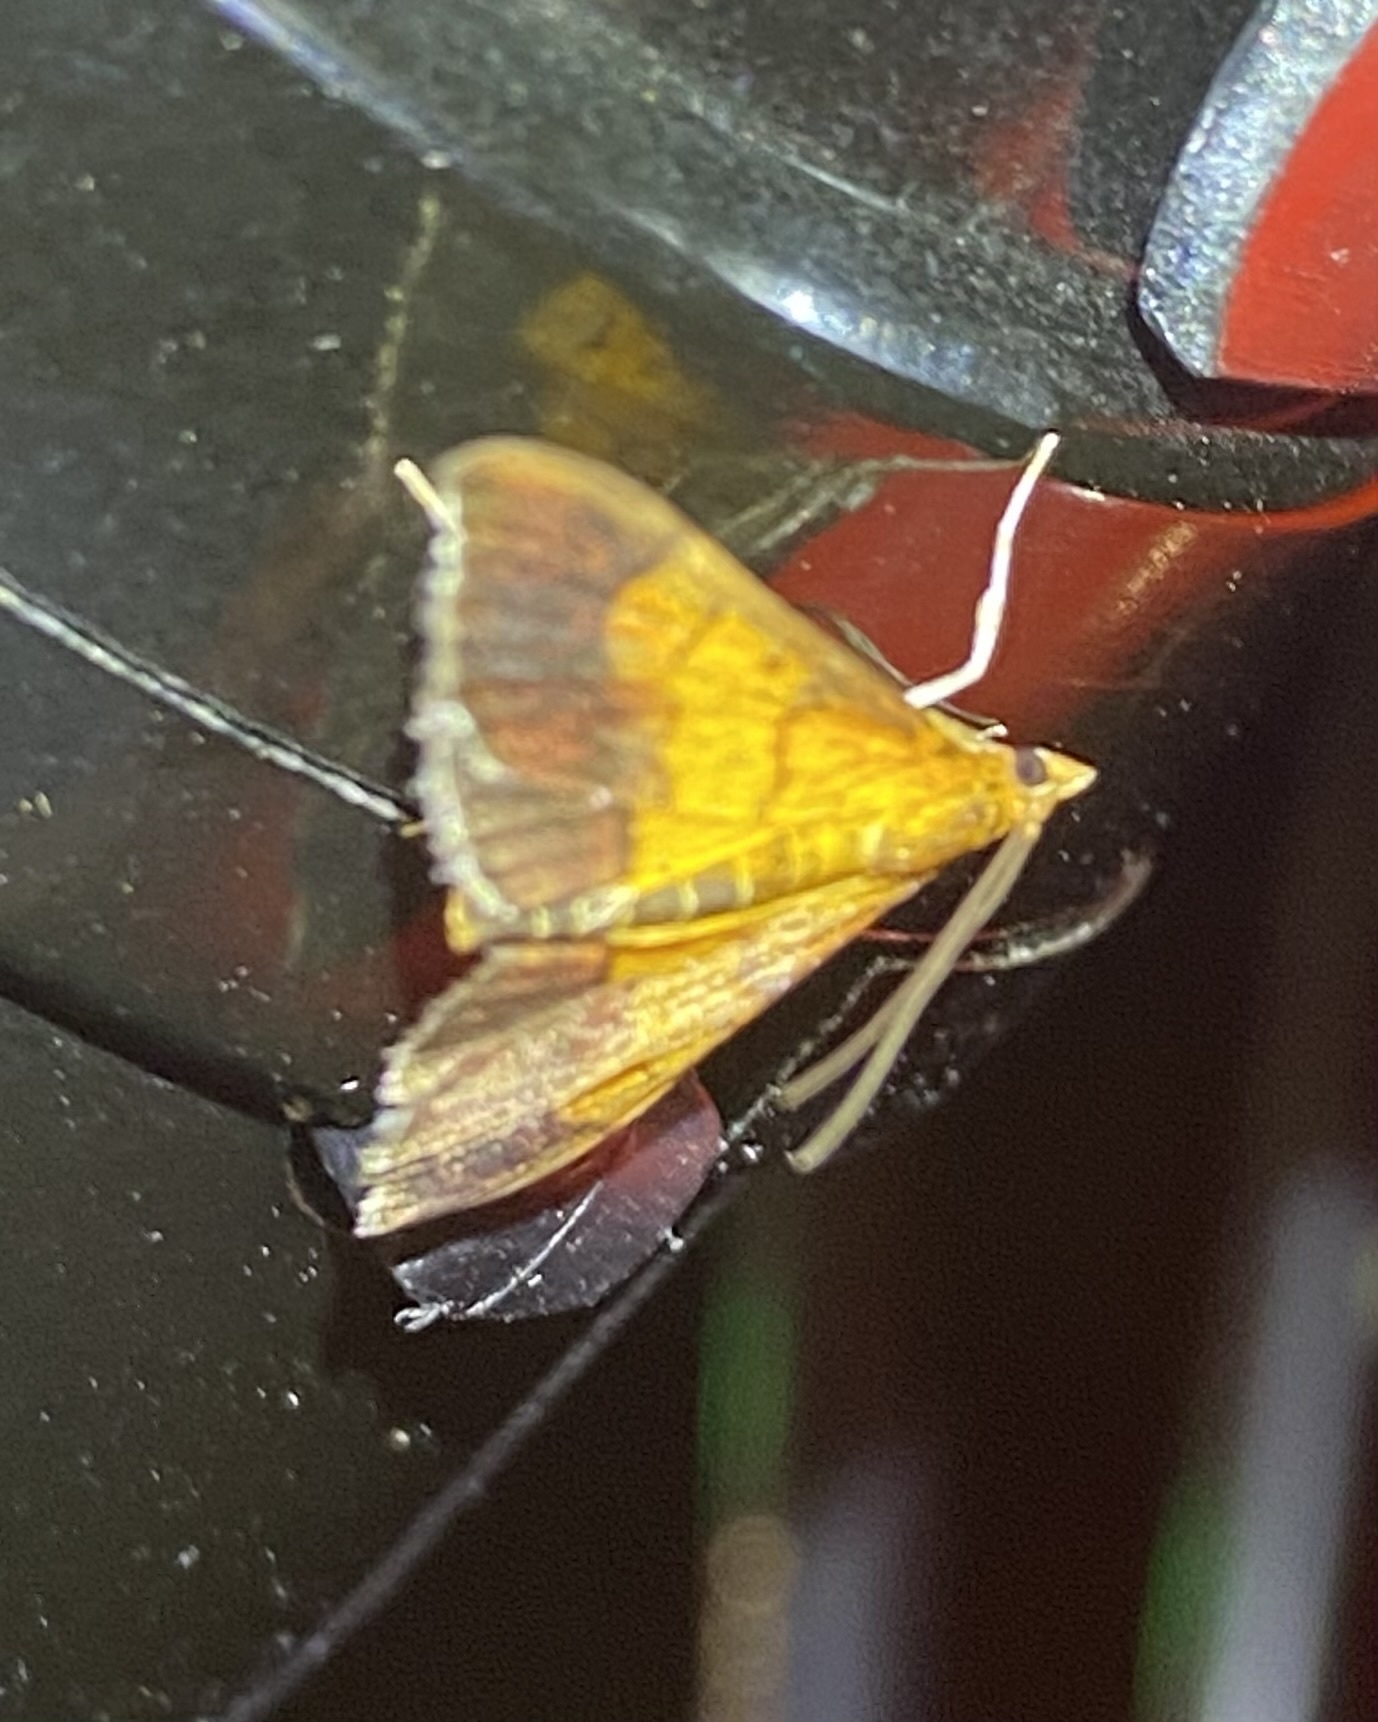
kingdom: Animalia
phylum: Arthropoda
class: Insecta
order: Lepidoptera
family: Crambidae
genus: Pyrausta
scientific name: Pyrausta bicoloralis
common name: Bicolored pyrausta moth
